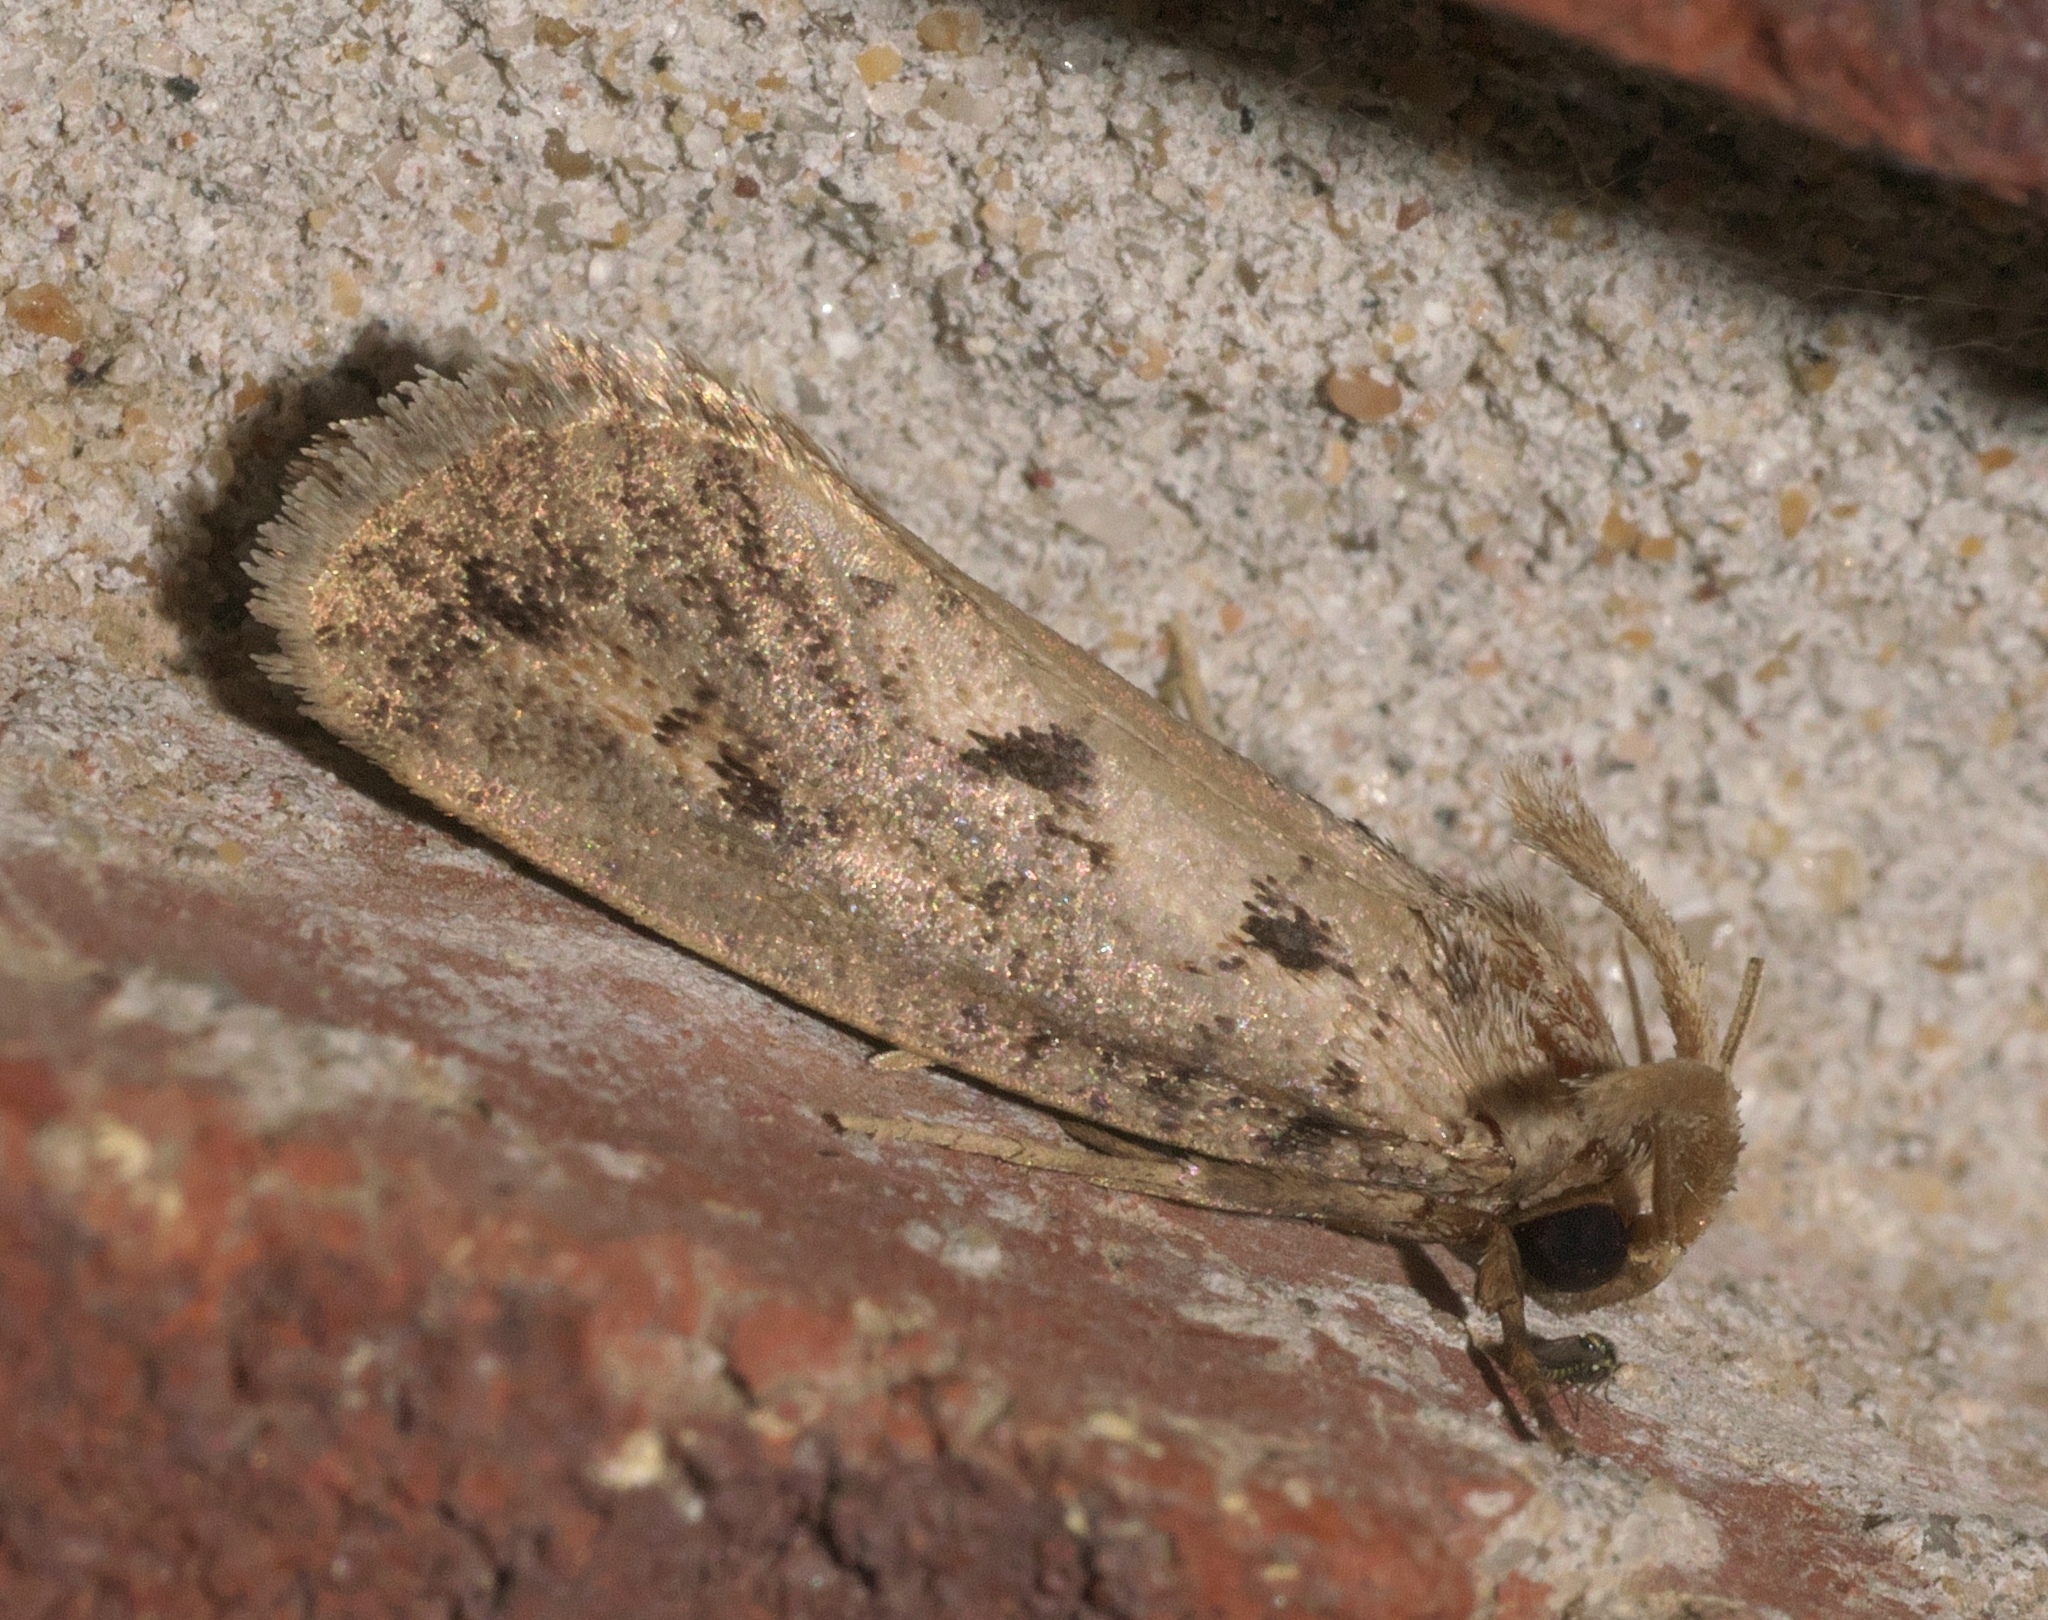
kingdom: Animalia
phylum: Arthropoda
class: Insecta
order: Lepidoptera
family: Tineidae
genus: Acrolophus
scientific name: Acrolophus mortipennella
